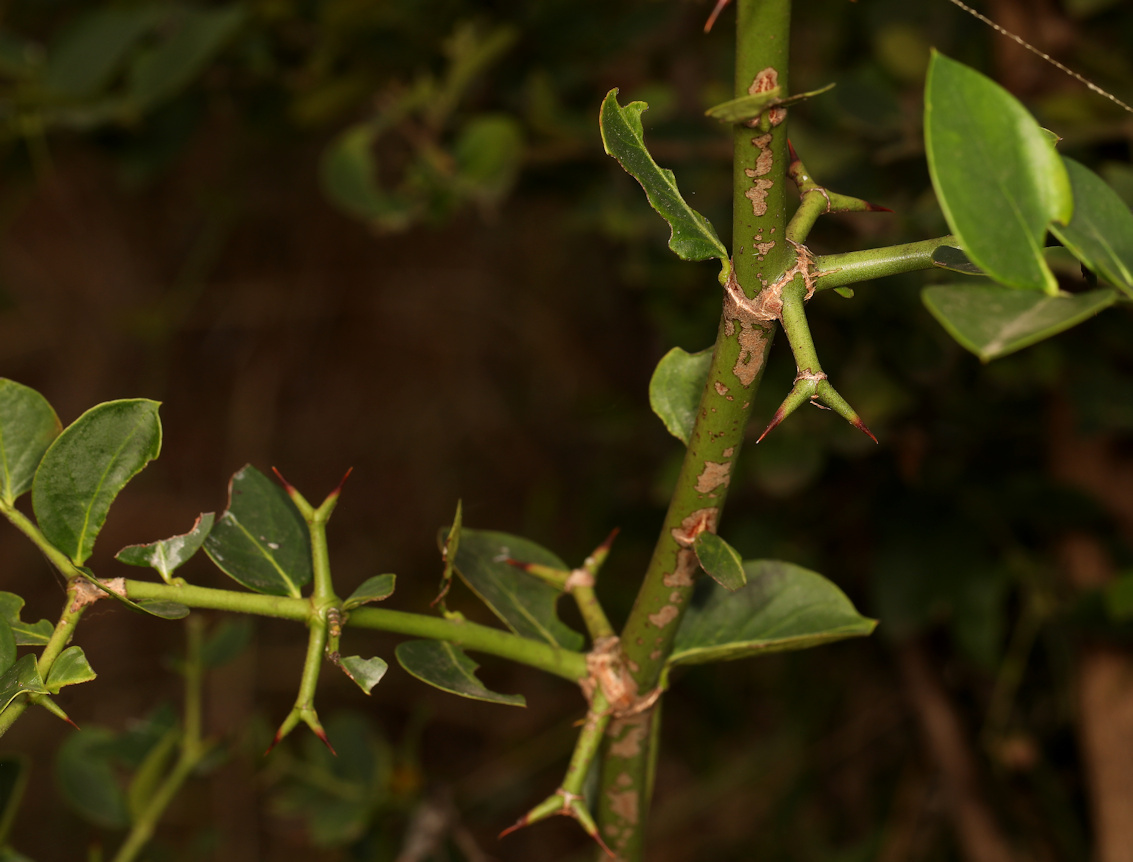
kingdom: Plantae
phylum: Tracheophyta
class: Magnoliopsida
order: Gentianales
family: Apocynaceae
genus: Carissa
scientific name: Carissa bispinosa
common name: Forest num-num
